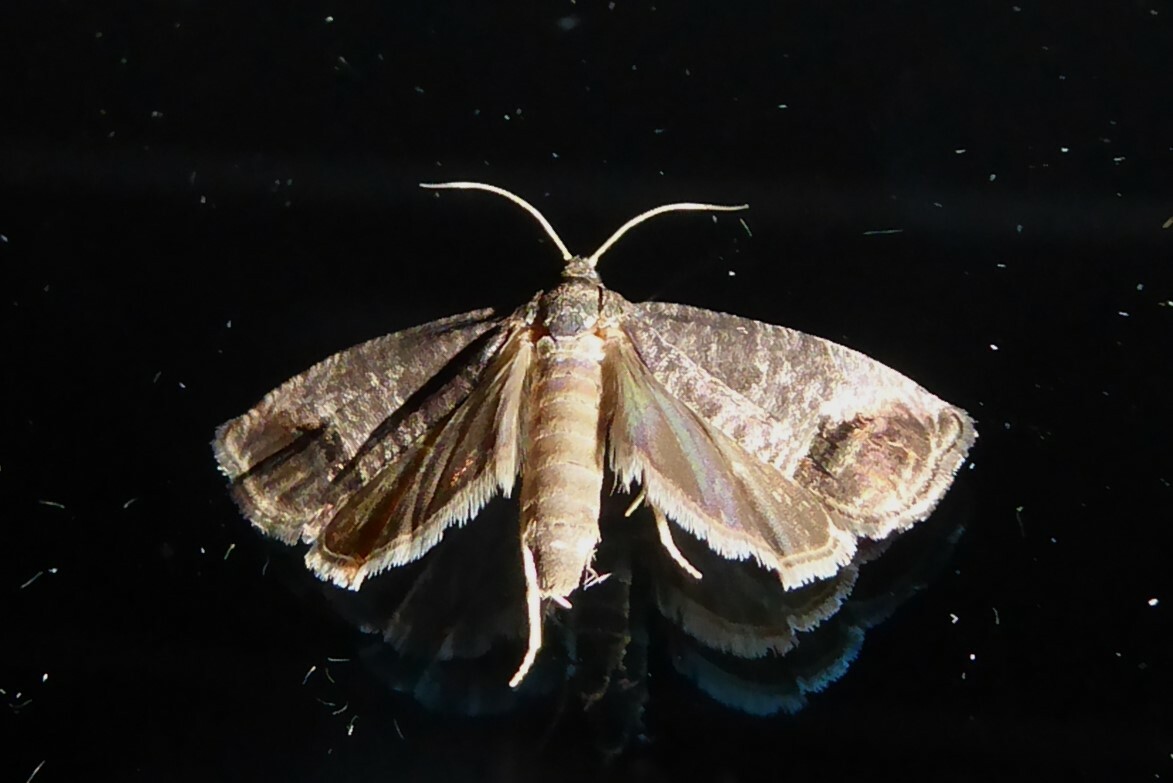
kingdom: Animalia
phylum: Arthropoda
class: Insecta
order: Lepidoptera
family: Tortricidae
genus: Cydia
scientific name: Cydia pomonella
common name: Codling moth
